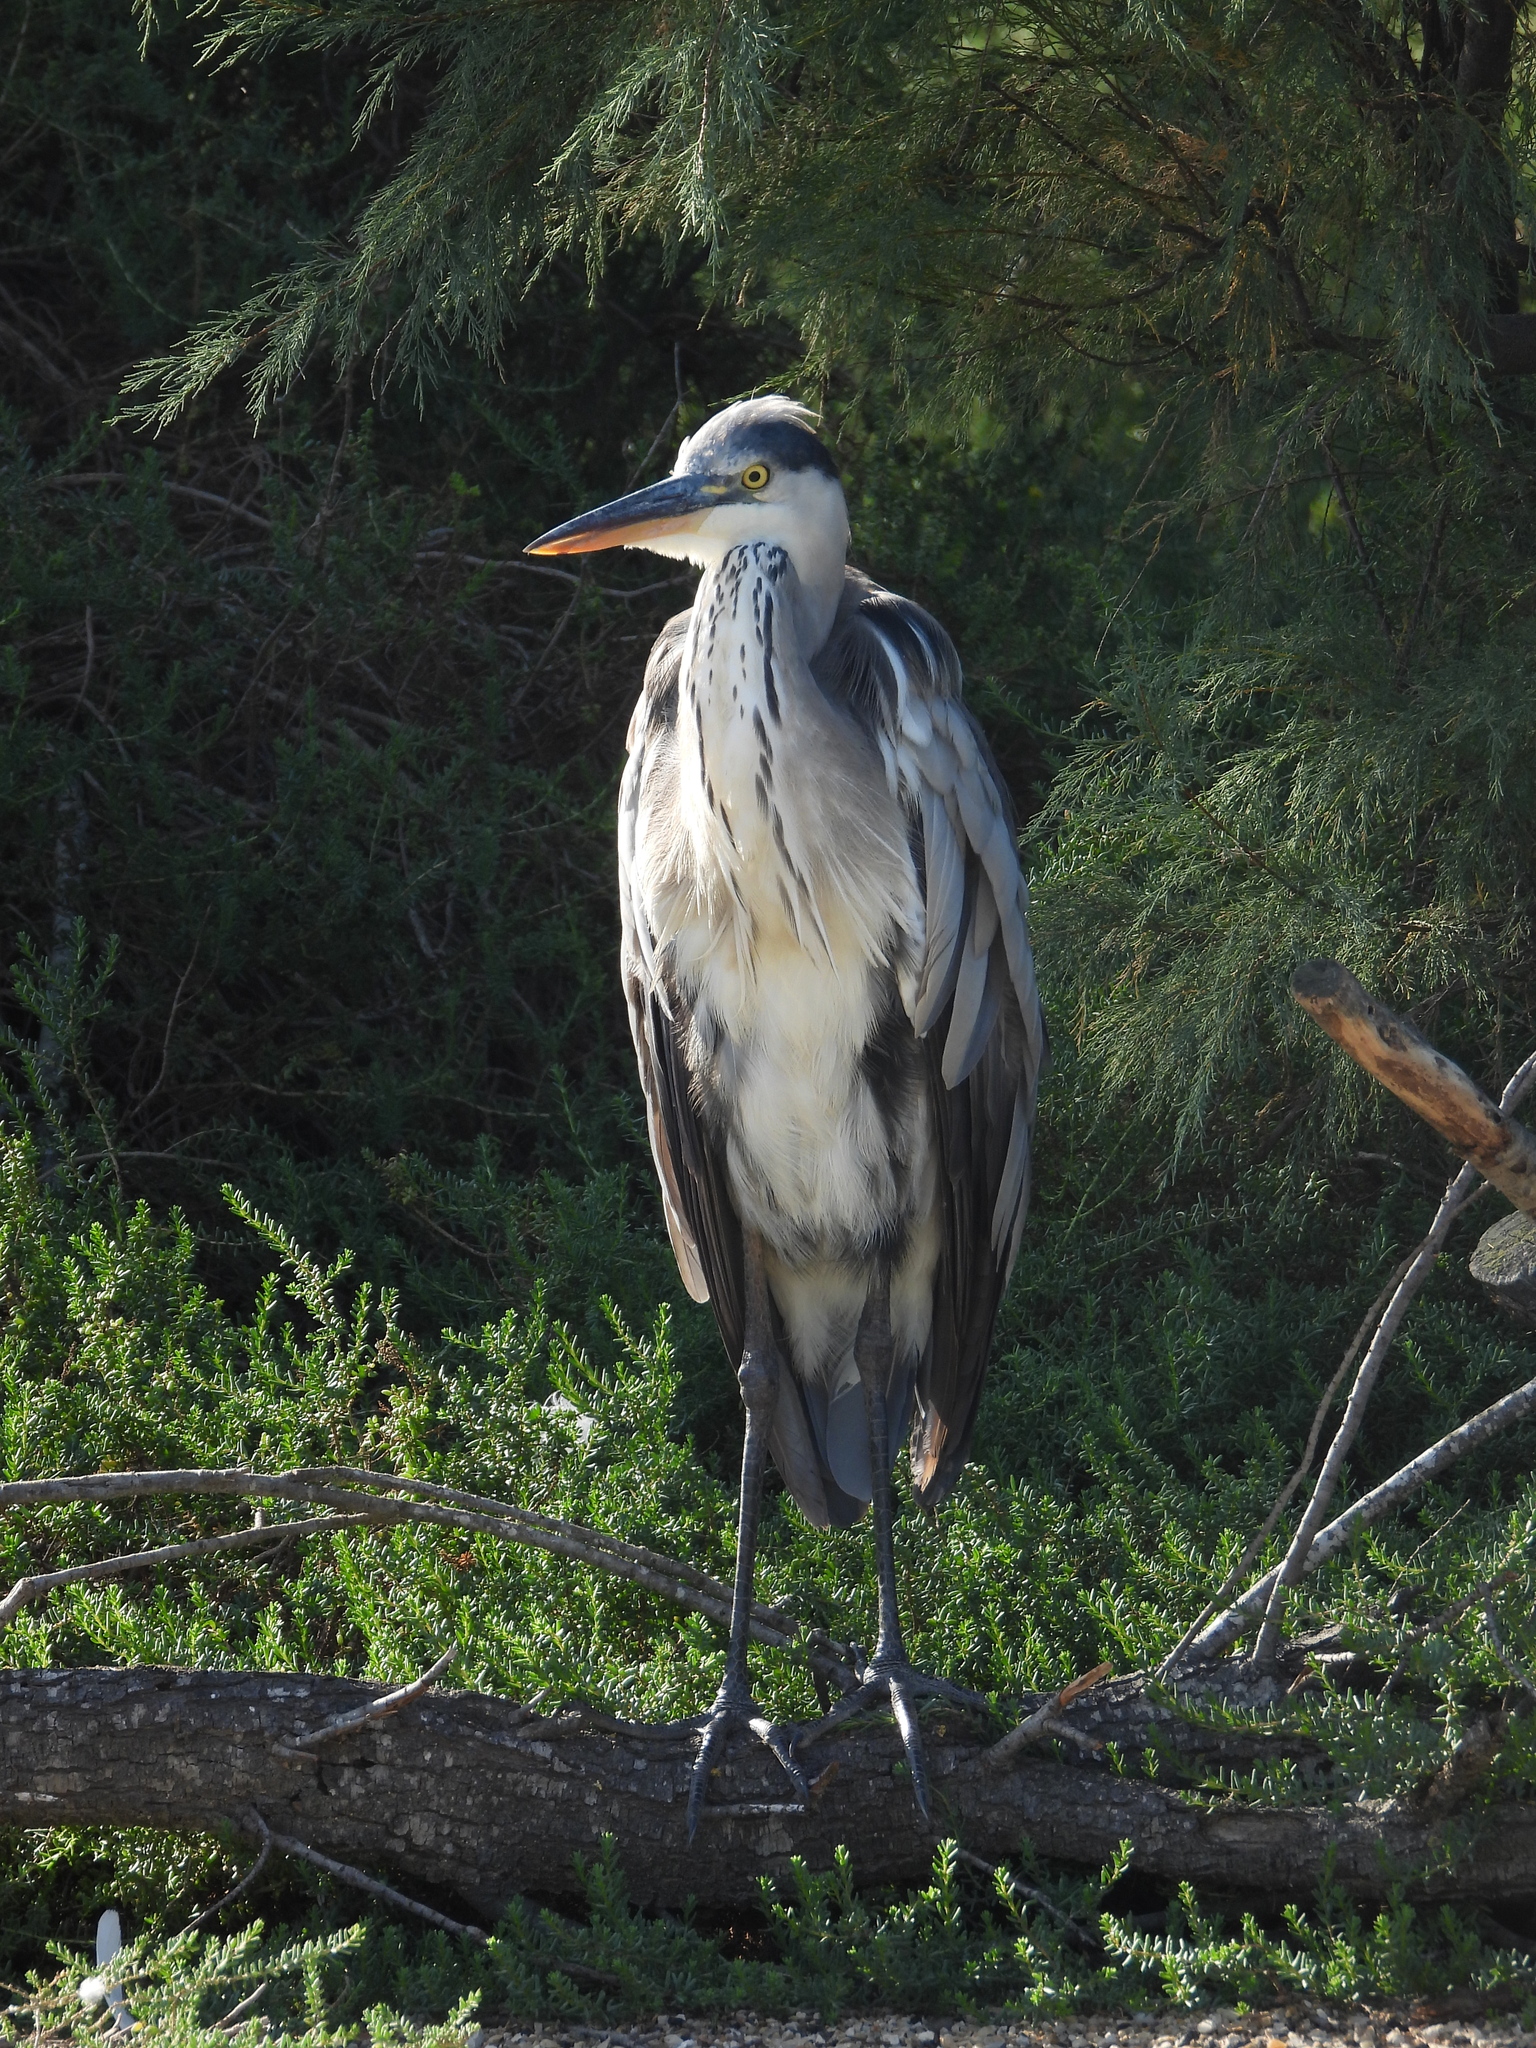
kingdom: Animalia
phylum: Chordata
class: Aves
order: Pelecaniformes
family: Ardeidae
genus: Ardea
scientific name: Ardea cinerea
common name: Grey heron
